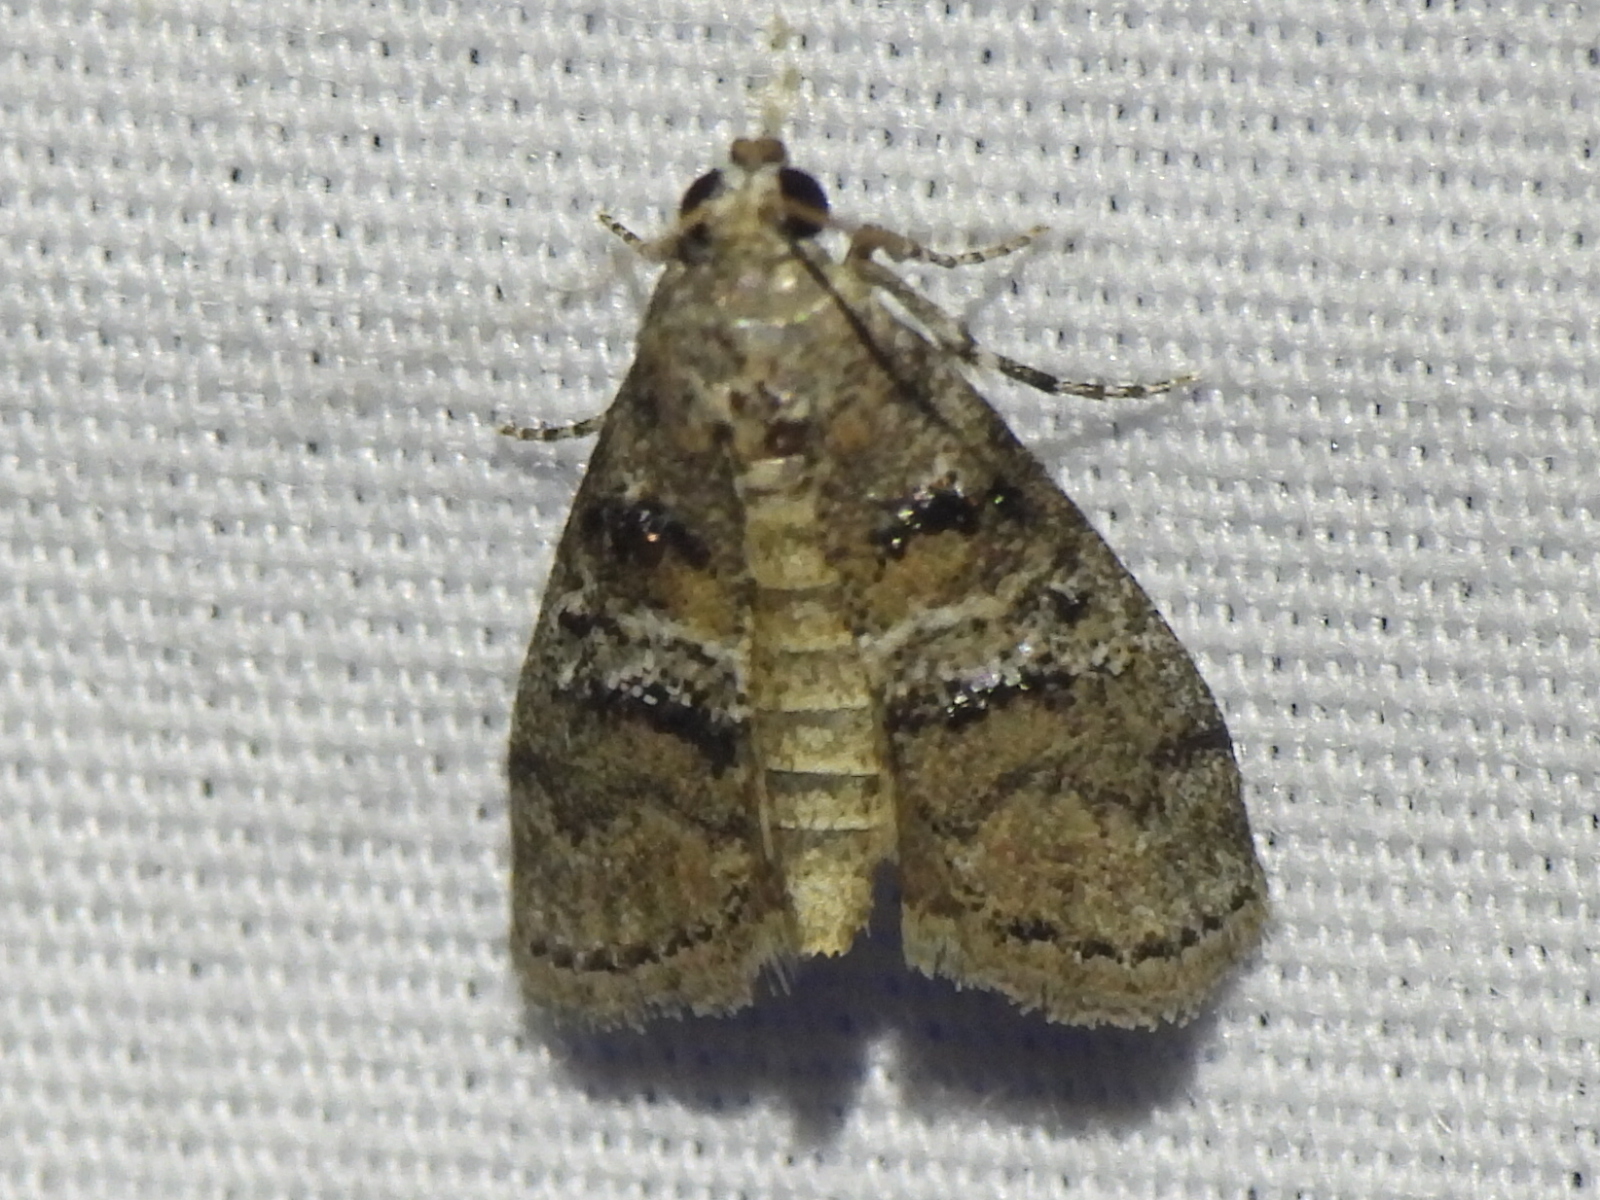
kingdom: Animalia
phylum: Arthropoda
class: Insecta
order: Lepidoptera
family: Pyralidae
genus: Pococera
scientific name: Pococera asperatella
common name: Maple webworm moth
